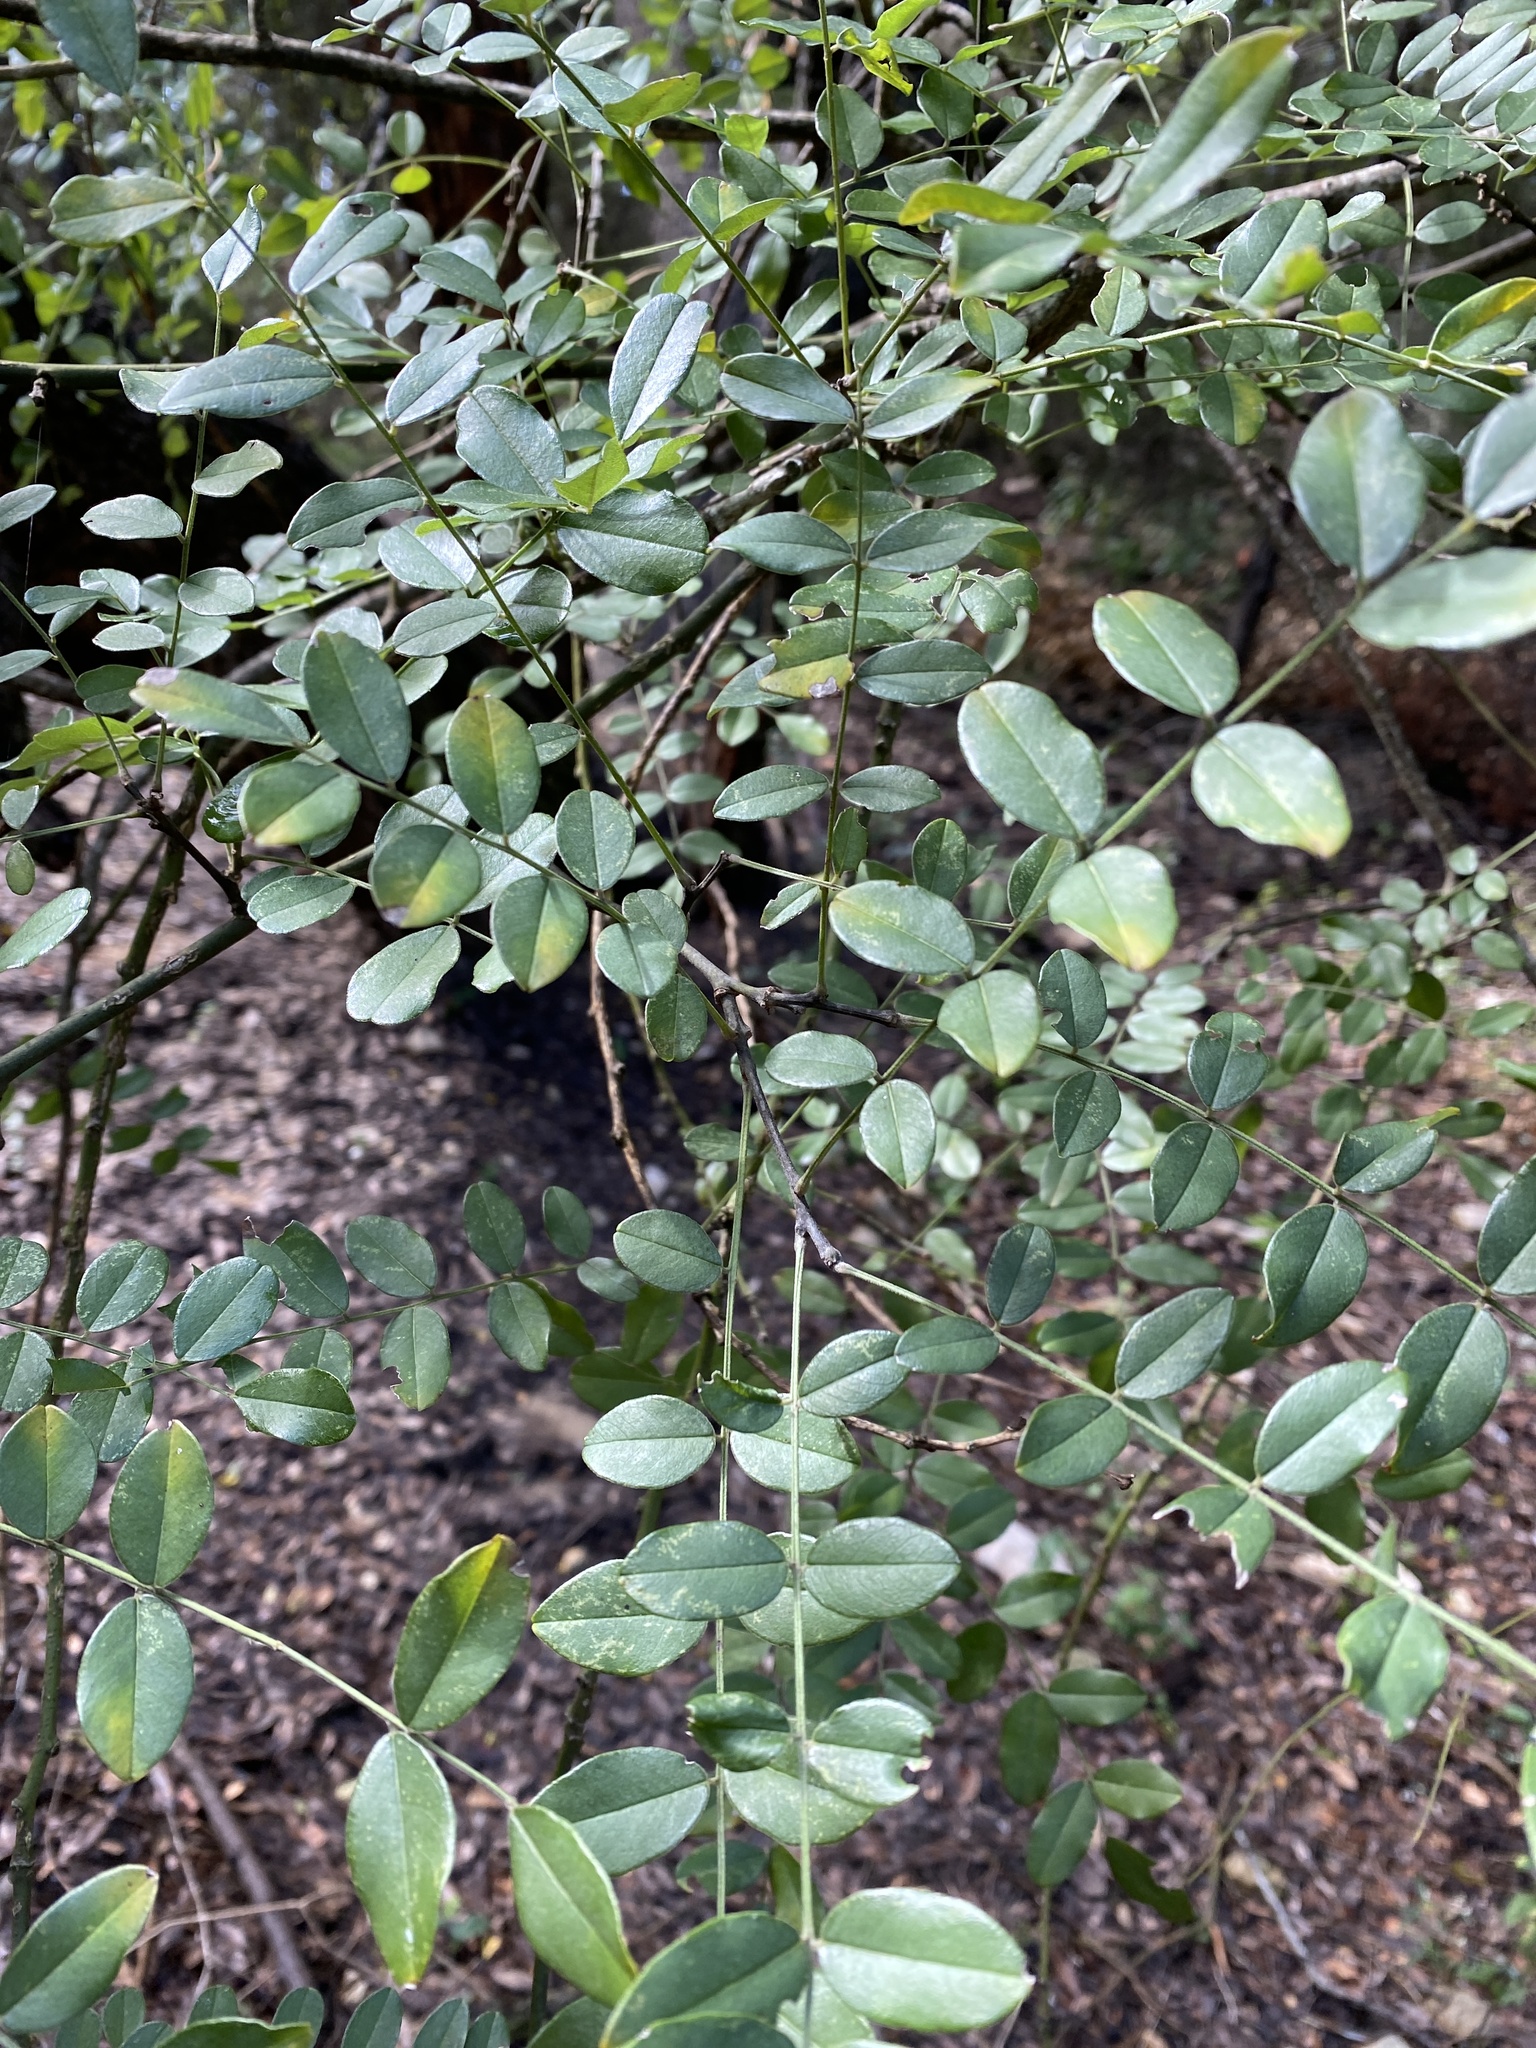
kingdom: Plantae
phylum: Tracheophyta
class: Magnoliopsida
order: Fabales
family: Fabaceae
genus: Styphnolobium
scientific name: Styphnolobium affine
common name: Texas sophora
